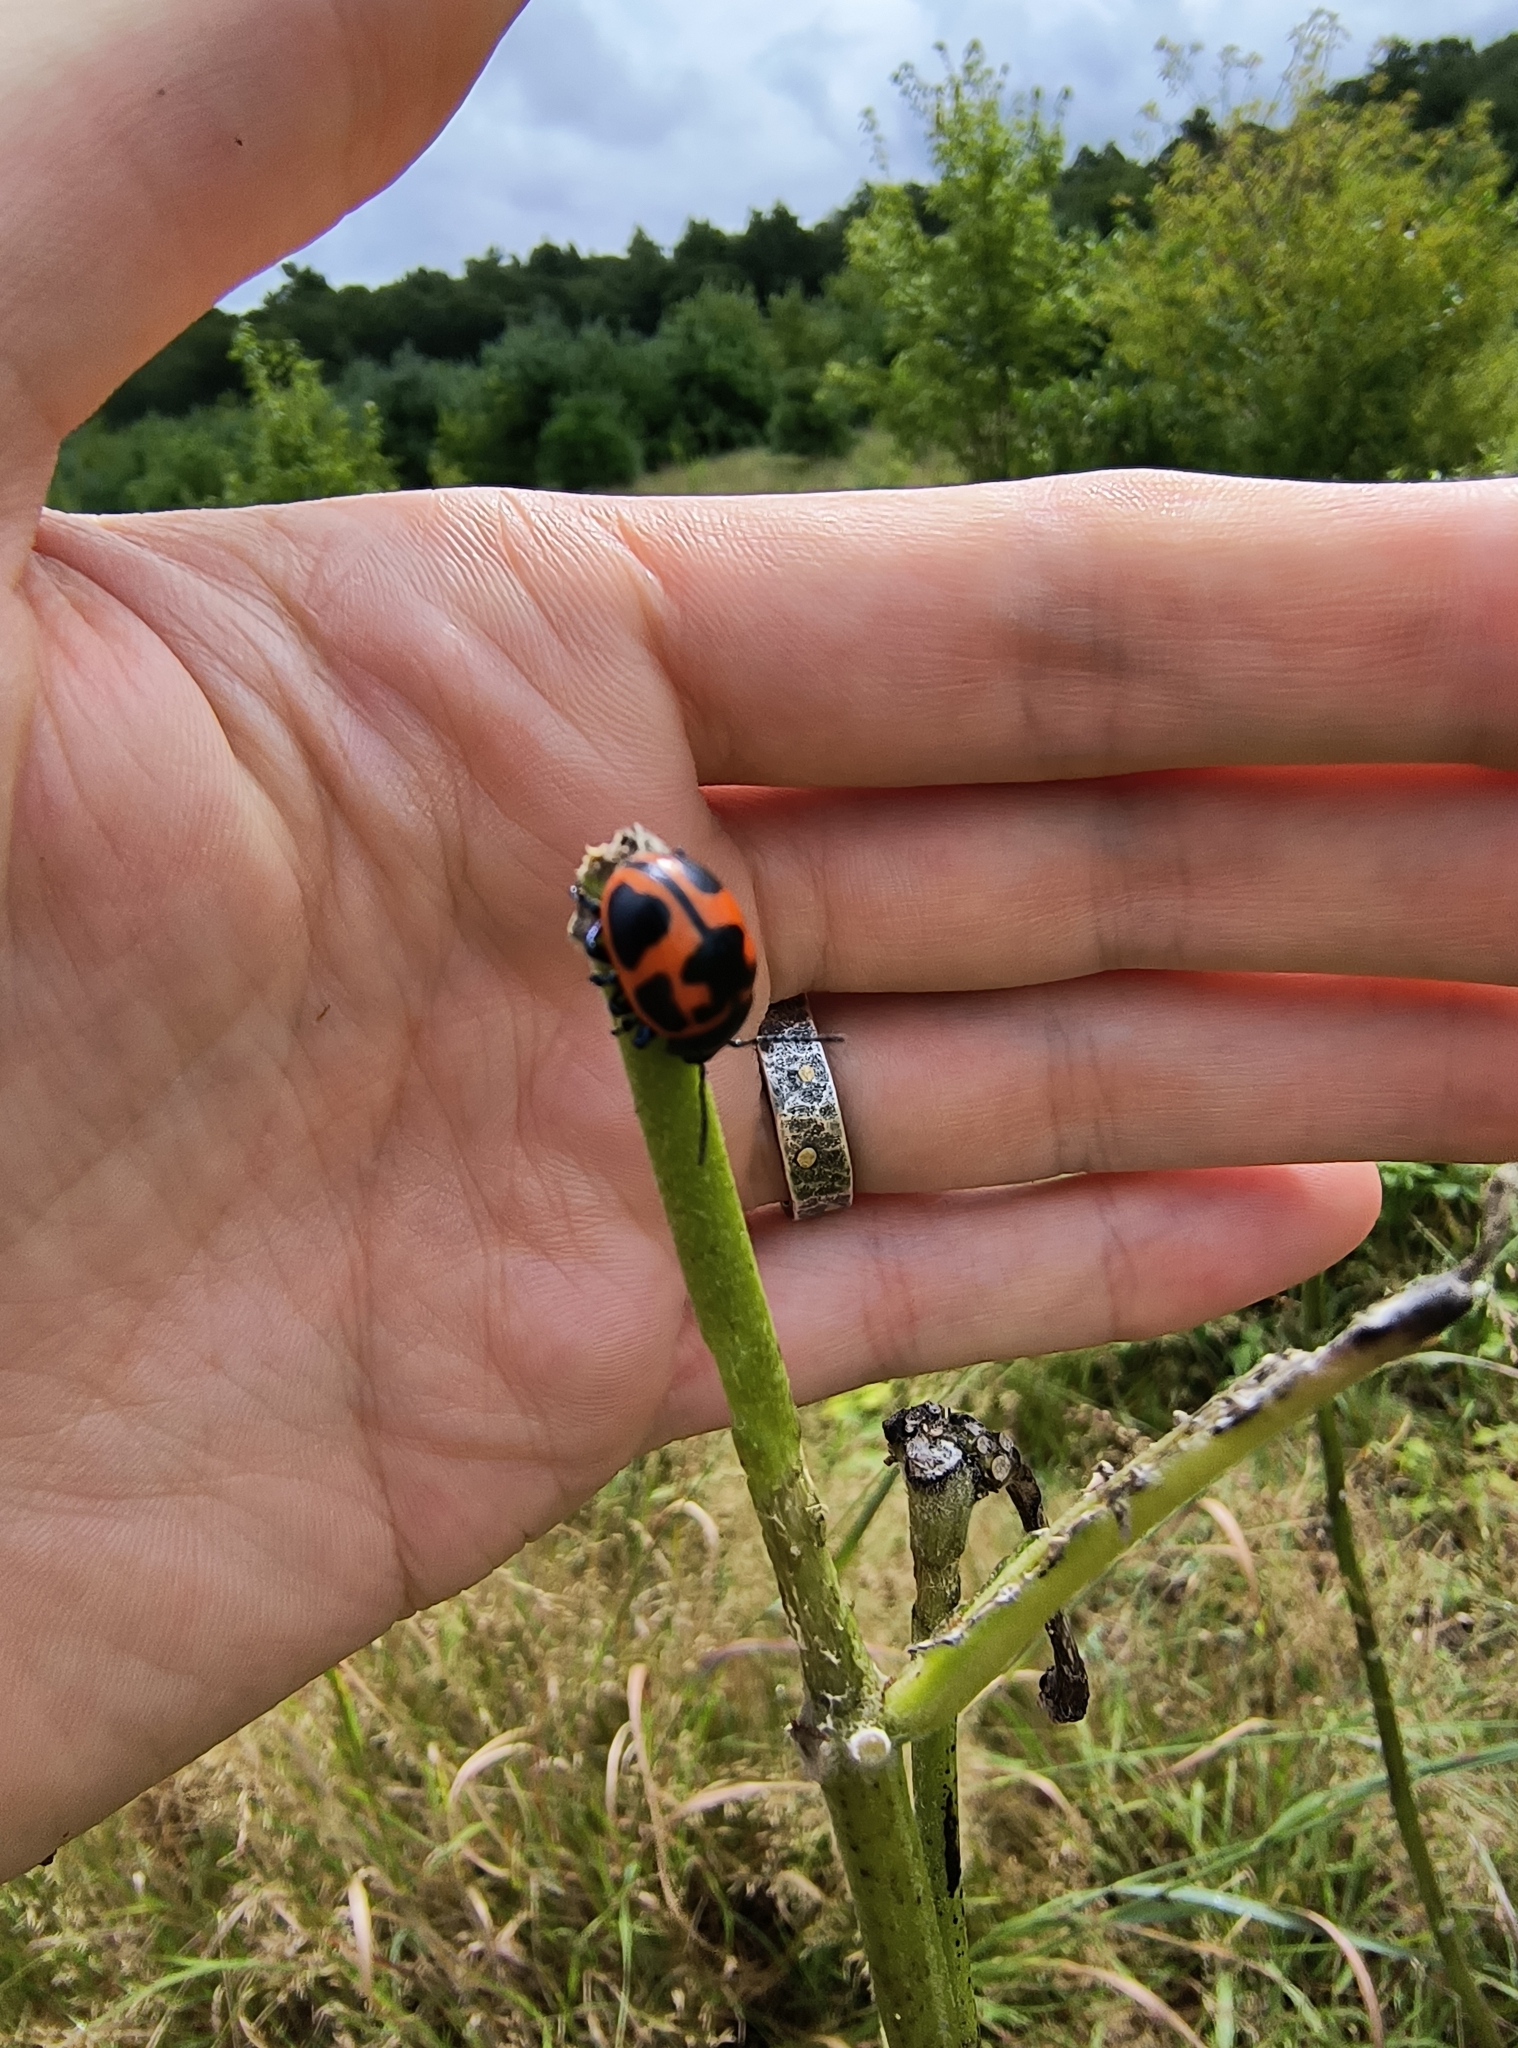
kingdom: Animalia
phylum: Arthropoda
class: Insecta
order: Coleoptera
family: Chrysomelidae
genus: Labidomera
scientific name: Labidomera clivicollis
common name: Swamp milkweed leaf beetle
